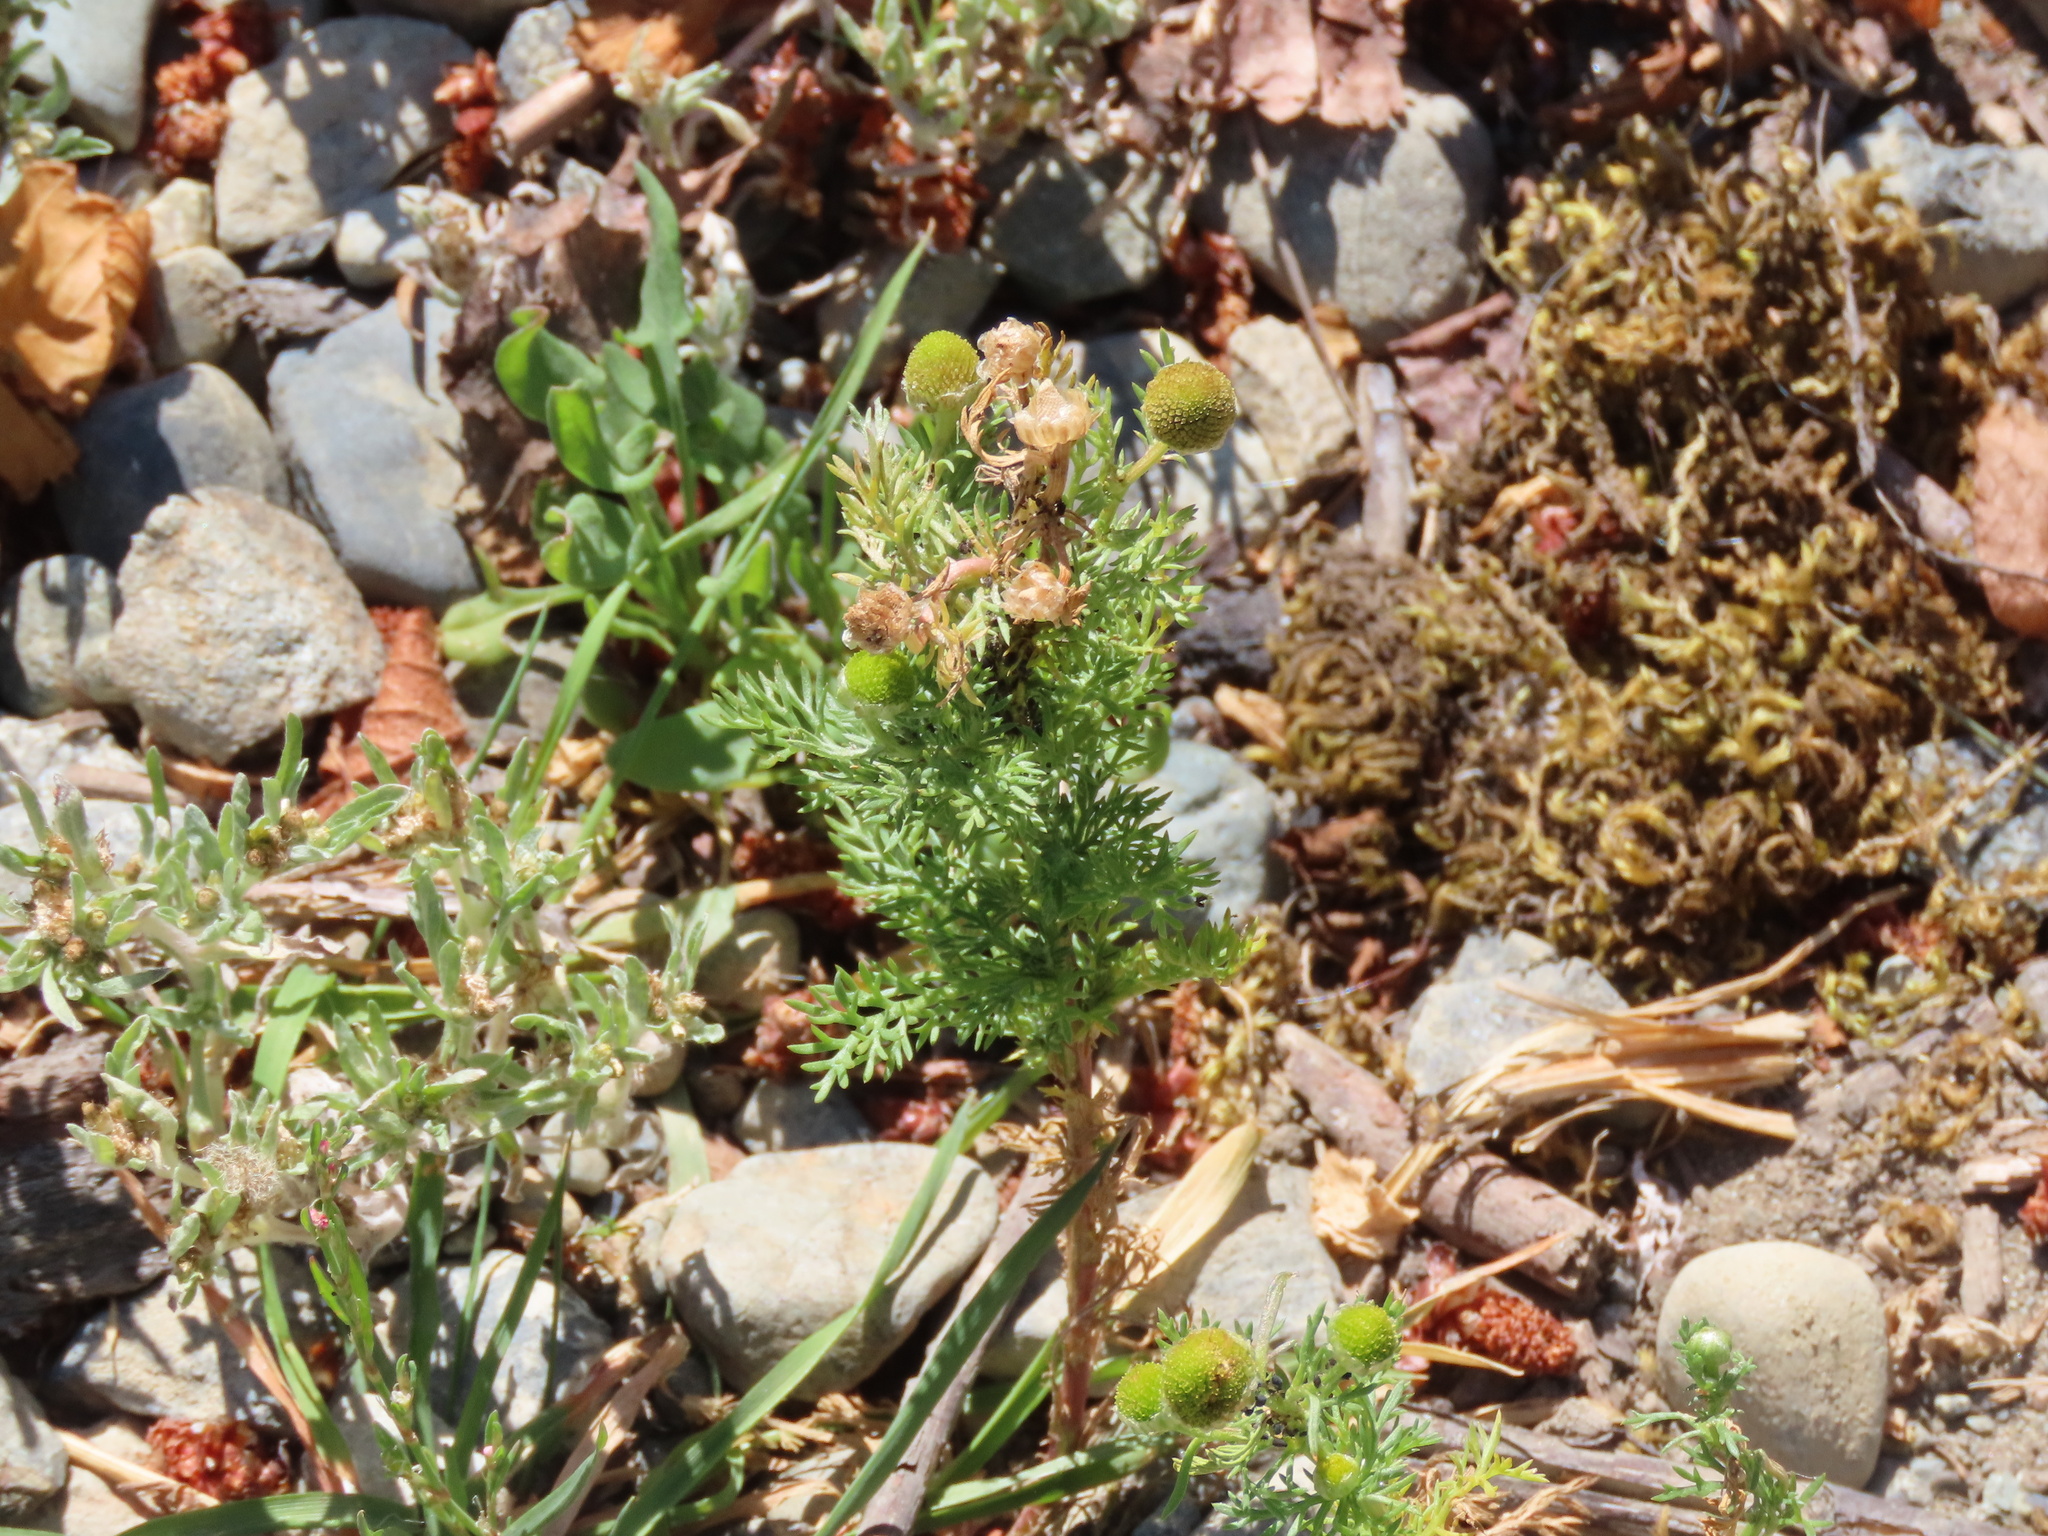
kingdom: Plantae
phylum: Tracheophyta
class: Magnoliopsida
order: Asterales
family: Asteraceae
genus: Matricaria
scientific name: Matricaria discoidea
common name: Disc mayweed
